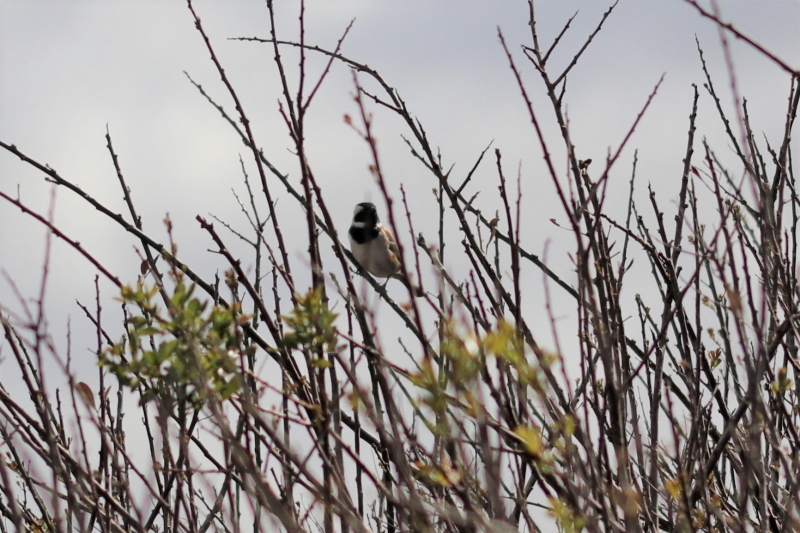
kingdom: Animalia
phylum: Chordata
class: Aves
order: Passeriformes
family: Passeridae
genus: Passer
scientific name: Passer melanurus
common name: Cape sparrow
